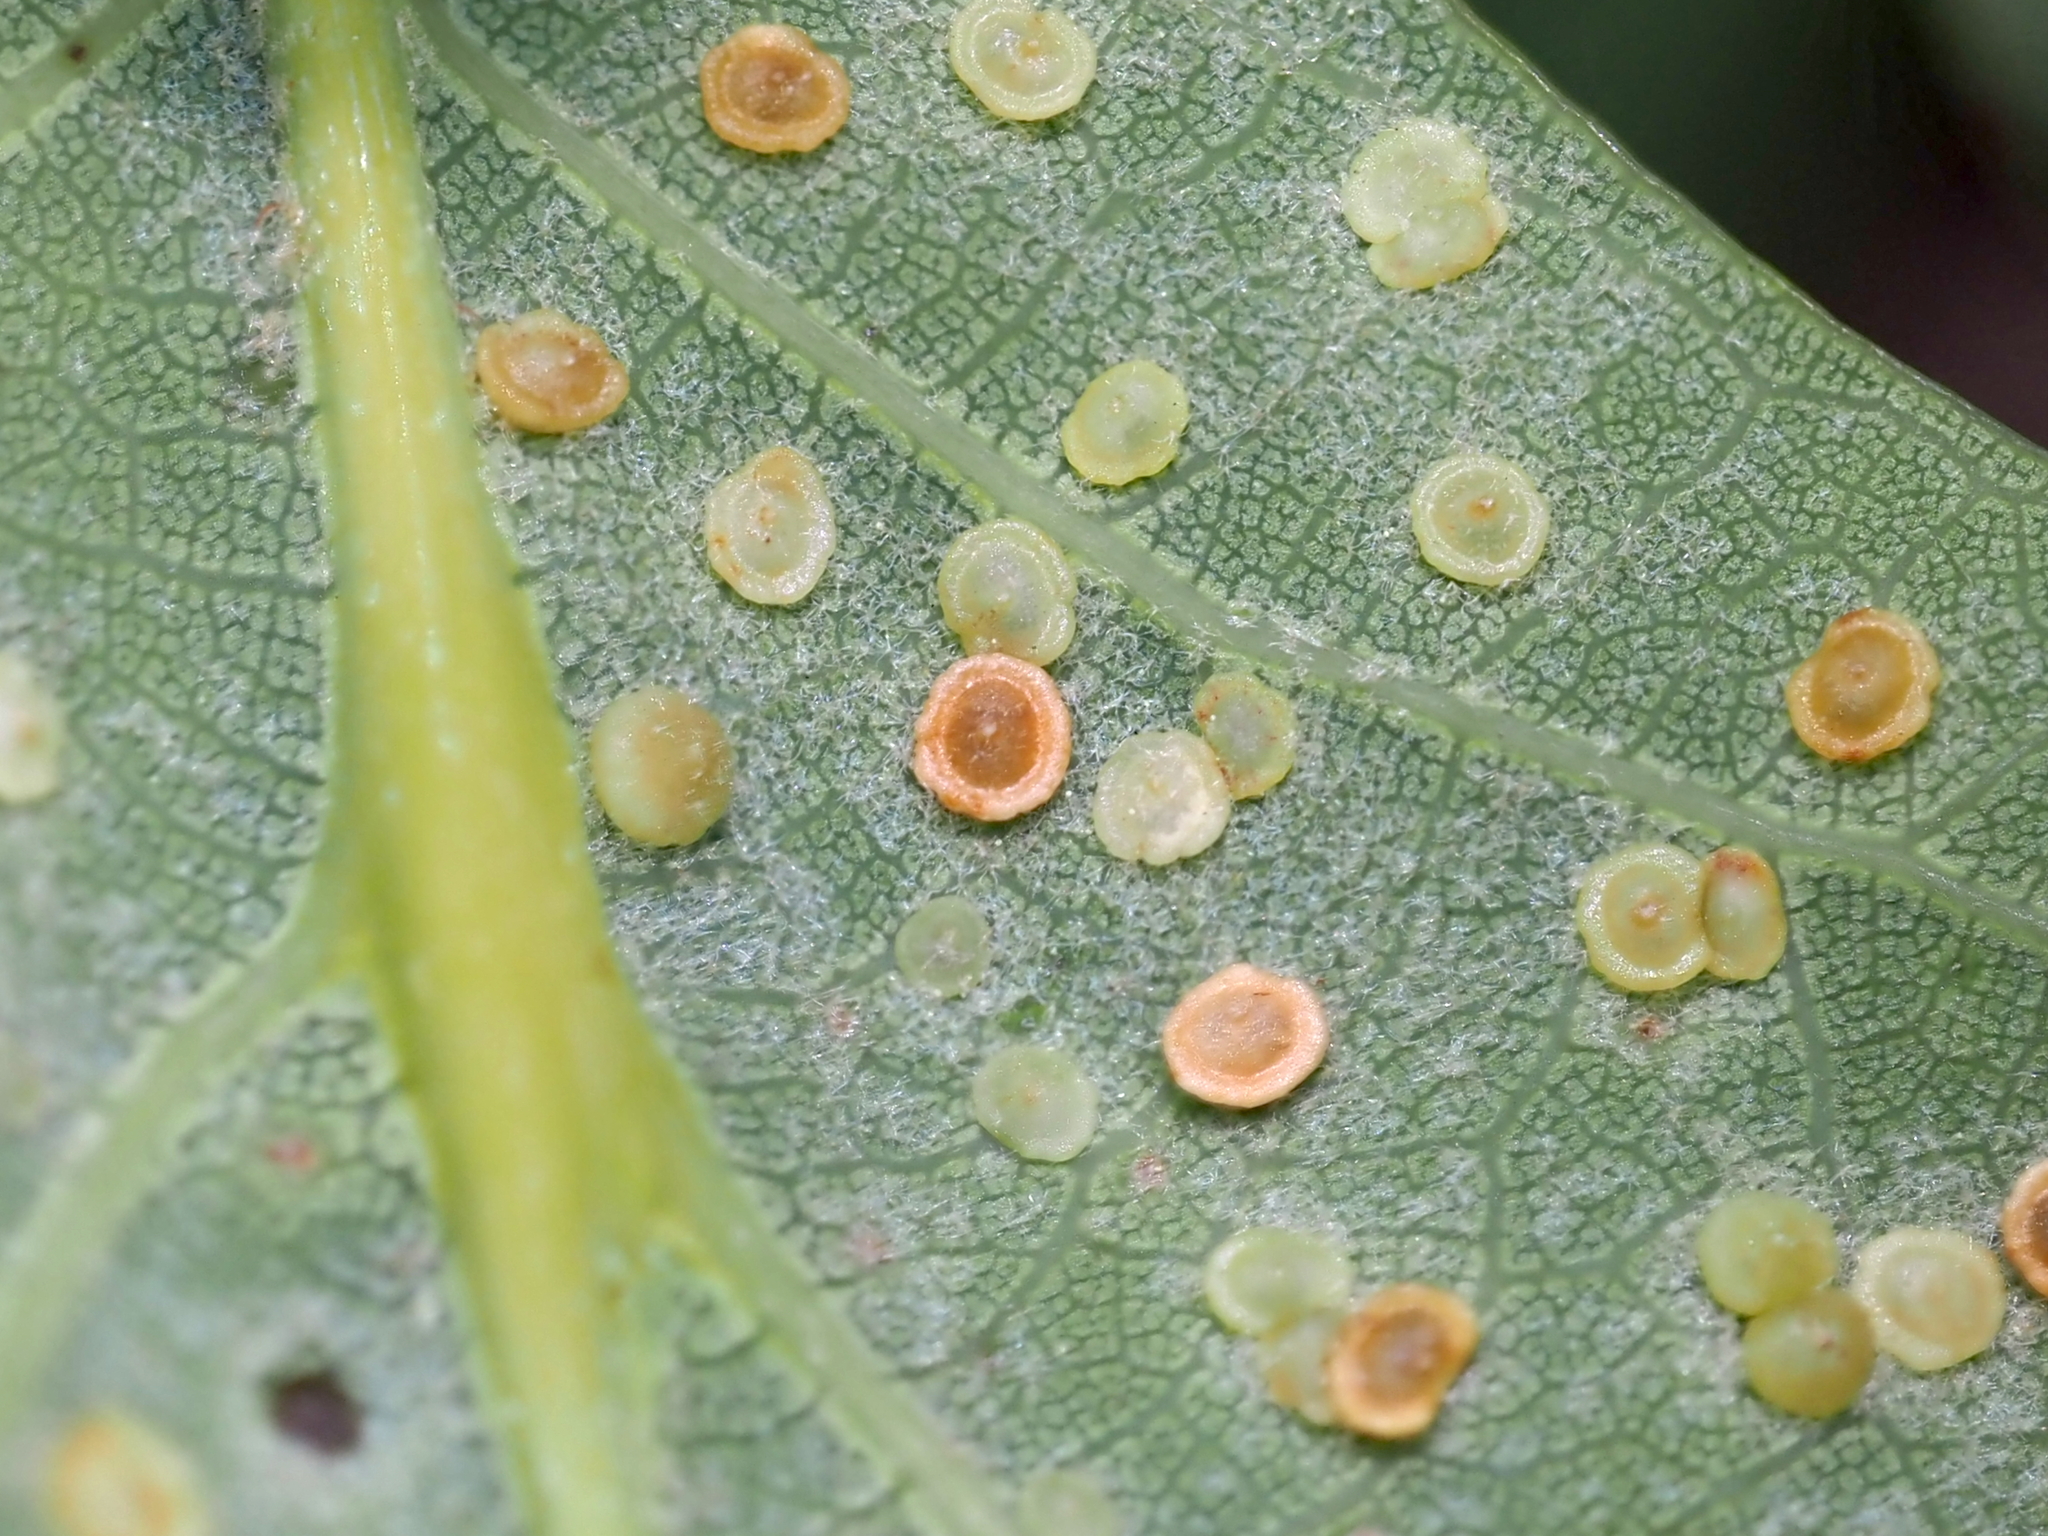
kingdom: Animalia
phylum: Arthropoda
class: Insecta
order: Hymenoptera
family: Cynipidae
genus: Neuroterus
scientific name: Neuroterus
